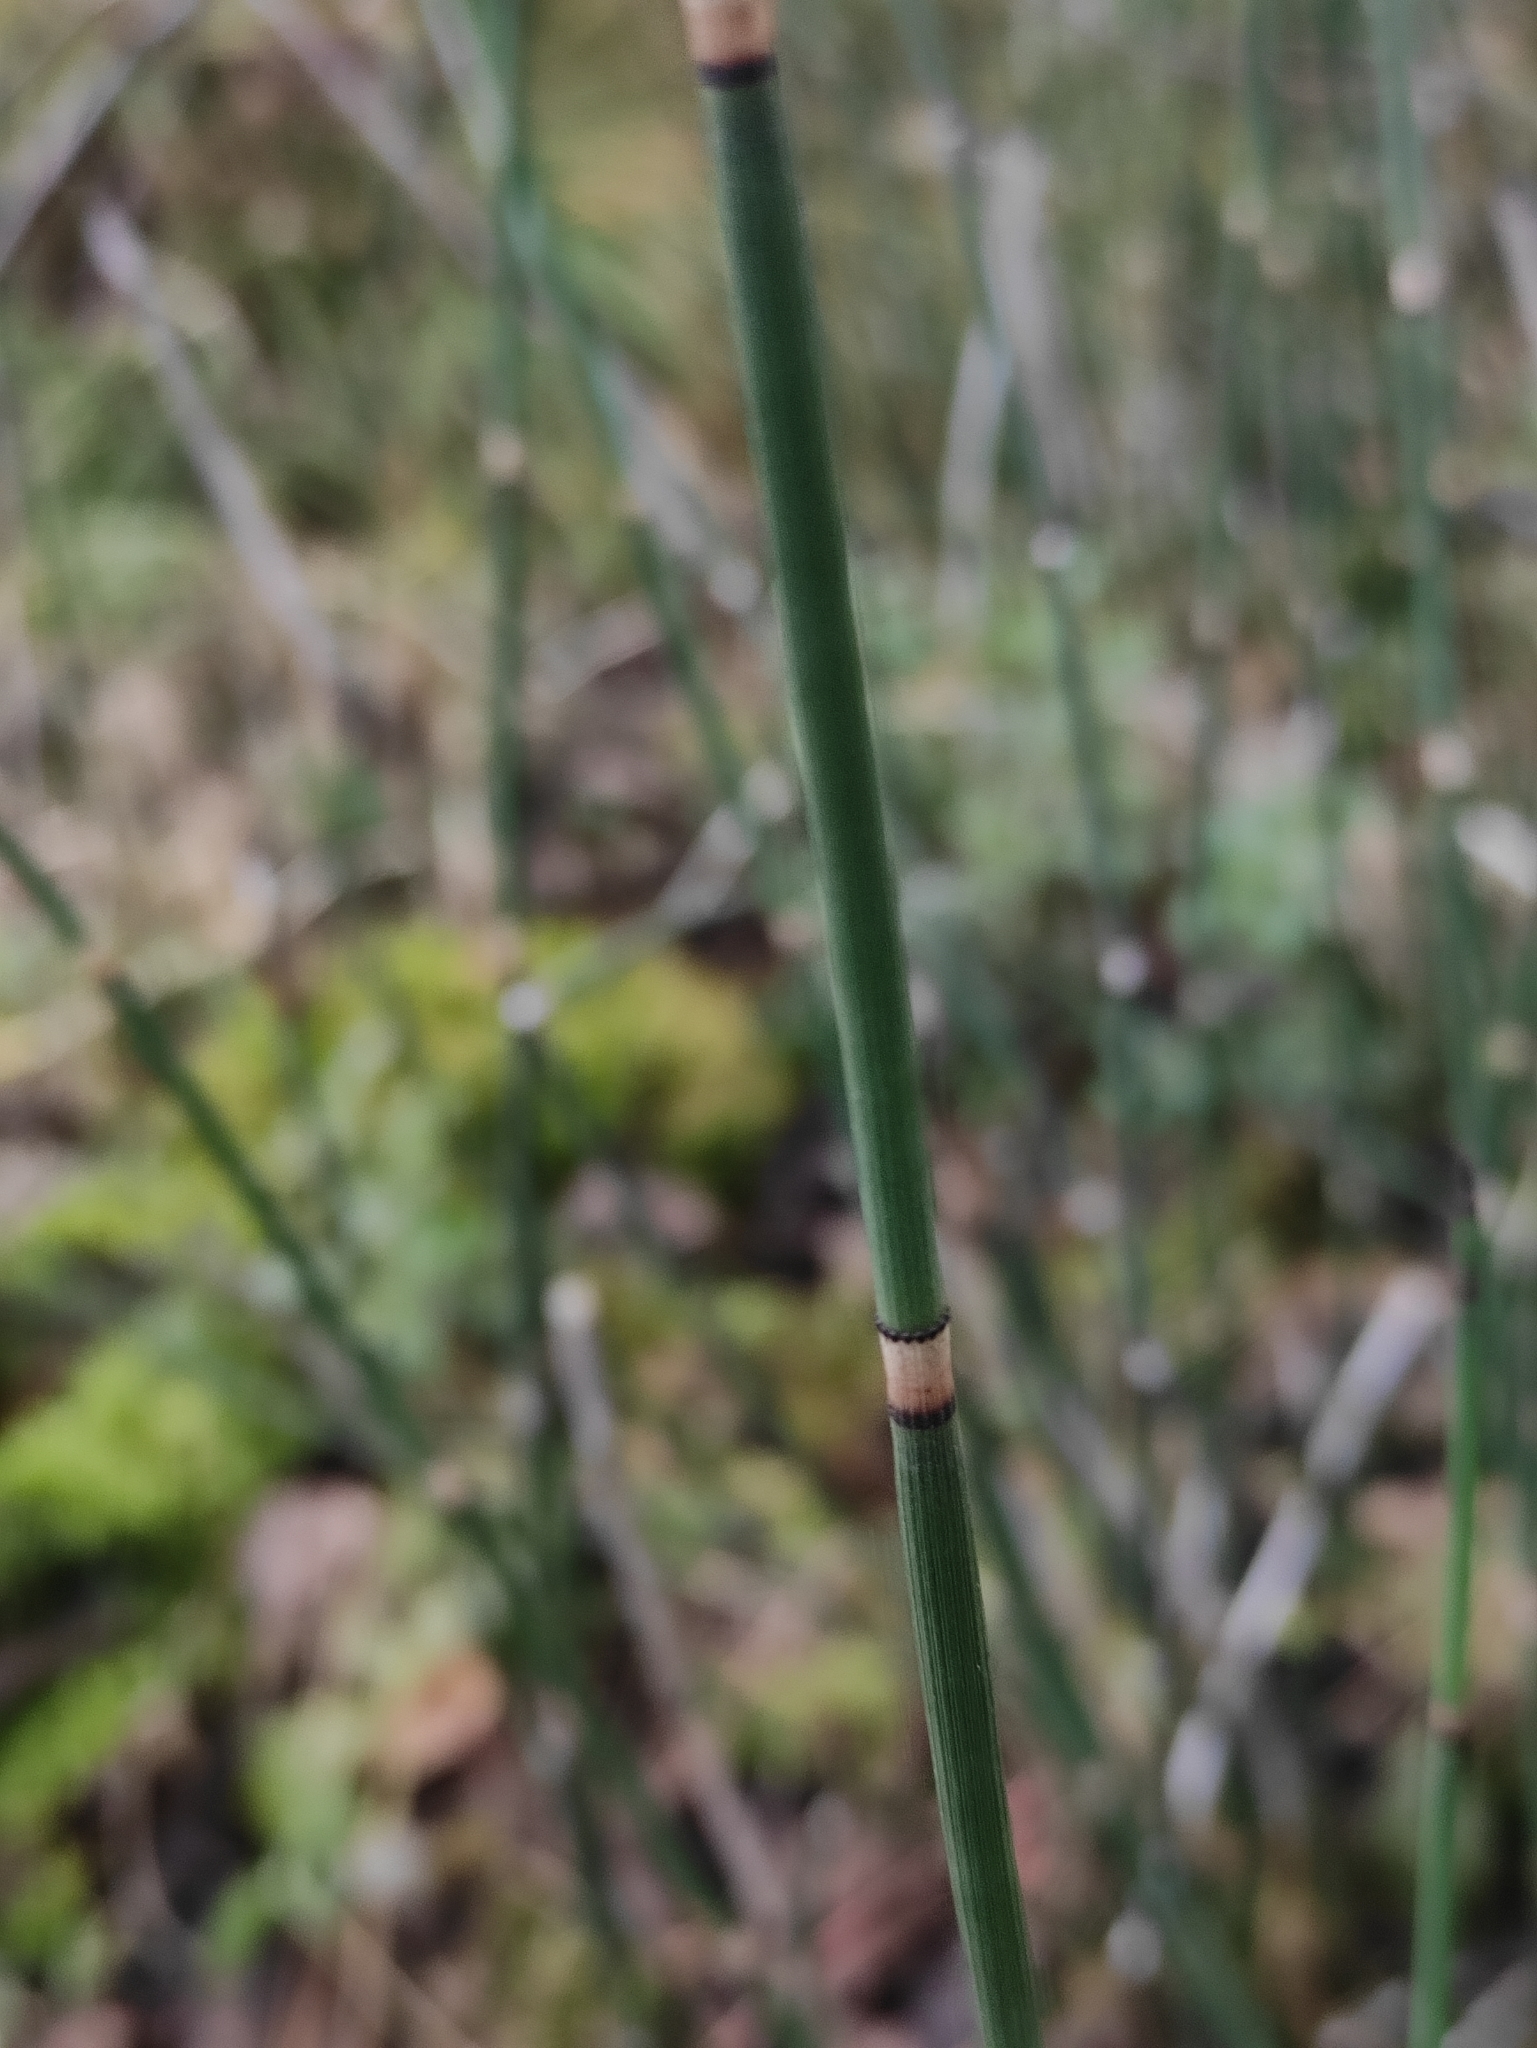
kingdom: Plantae
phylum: Tracheophyta
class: Polypodiopsida
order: Equisetales
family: Equisetaceae
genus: Equisetum
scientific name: Equisetum hyemale
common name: Rough horsetail
